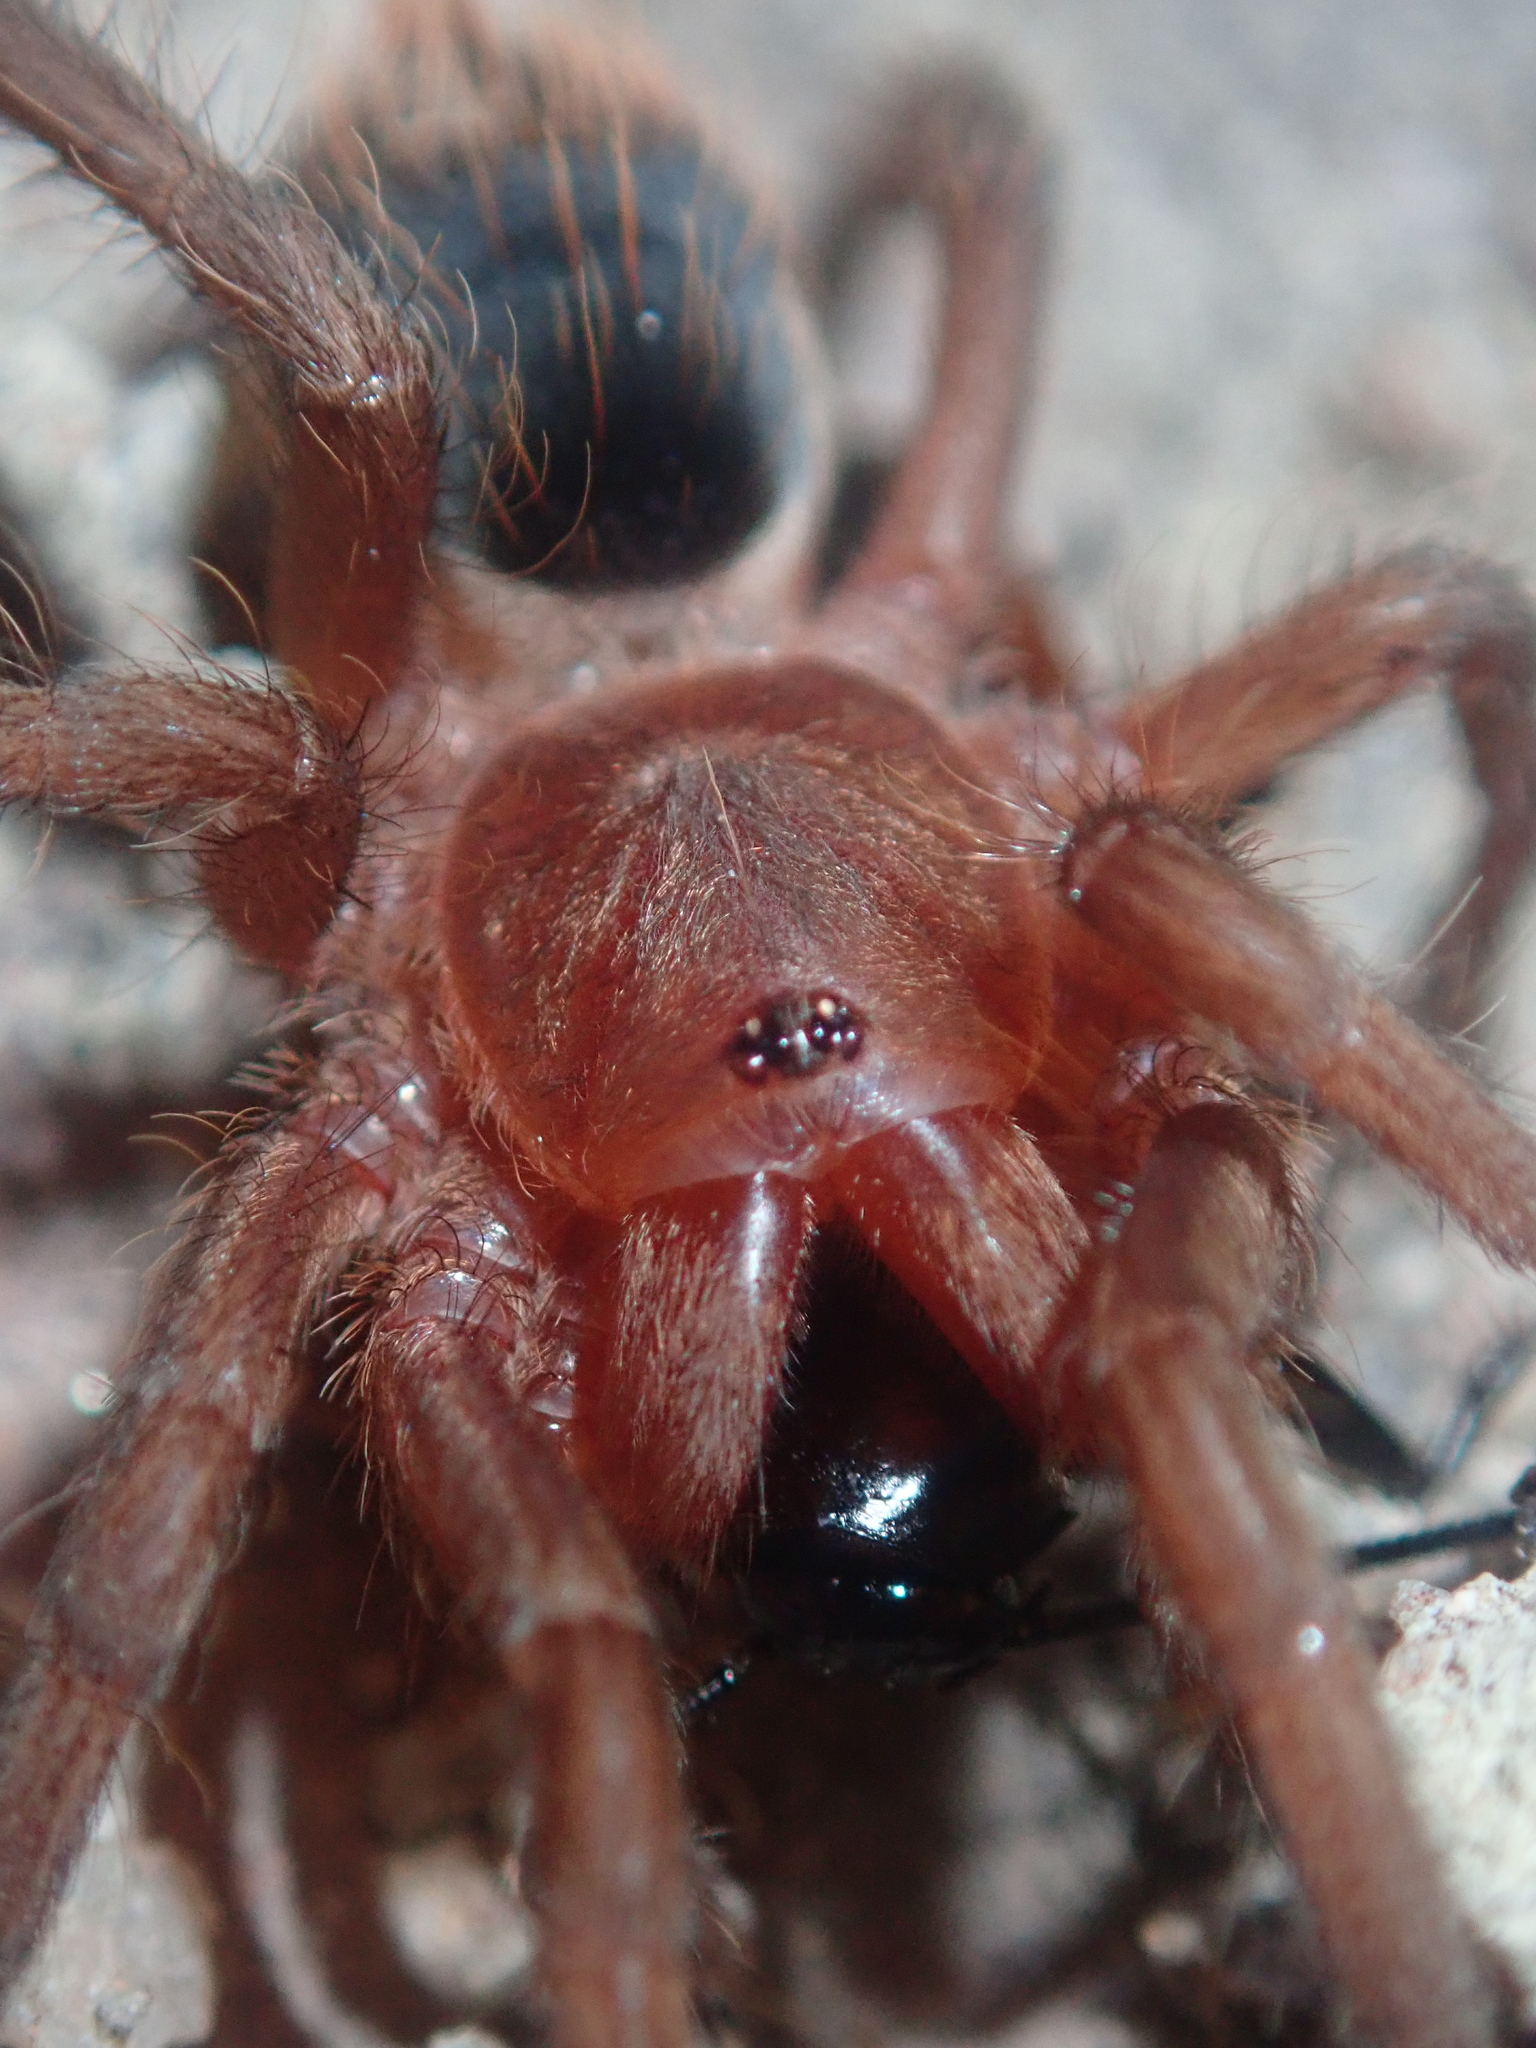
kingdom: Animalia
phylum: Arthropoda
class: Arachnida
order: Araneae
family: Theraphosidae
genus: Catanduba
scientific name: Catanduba simoni
